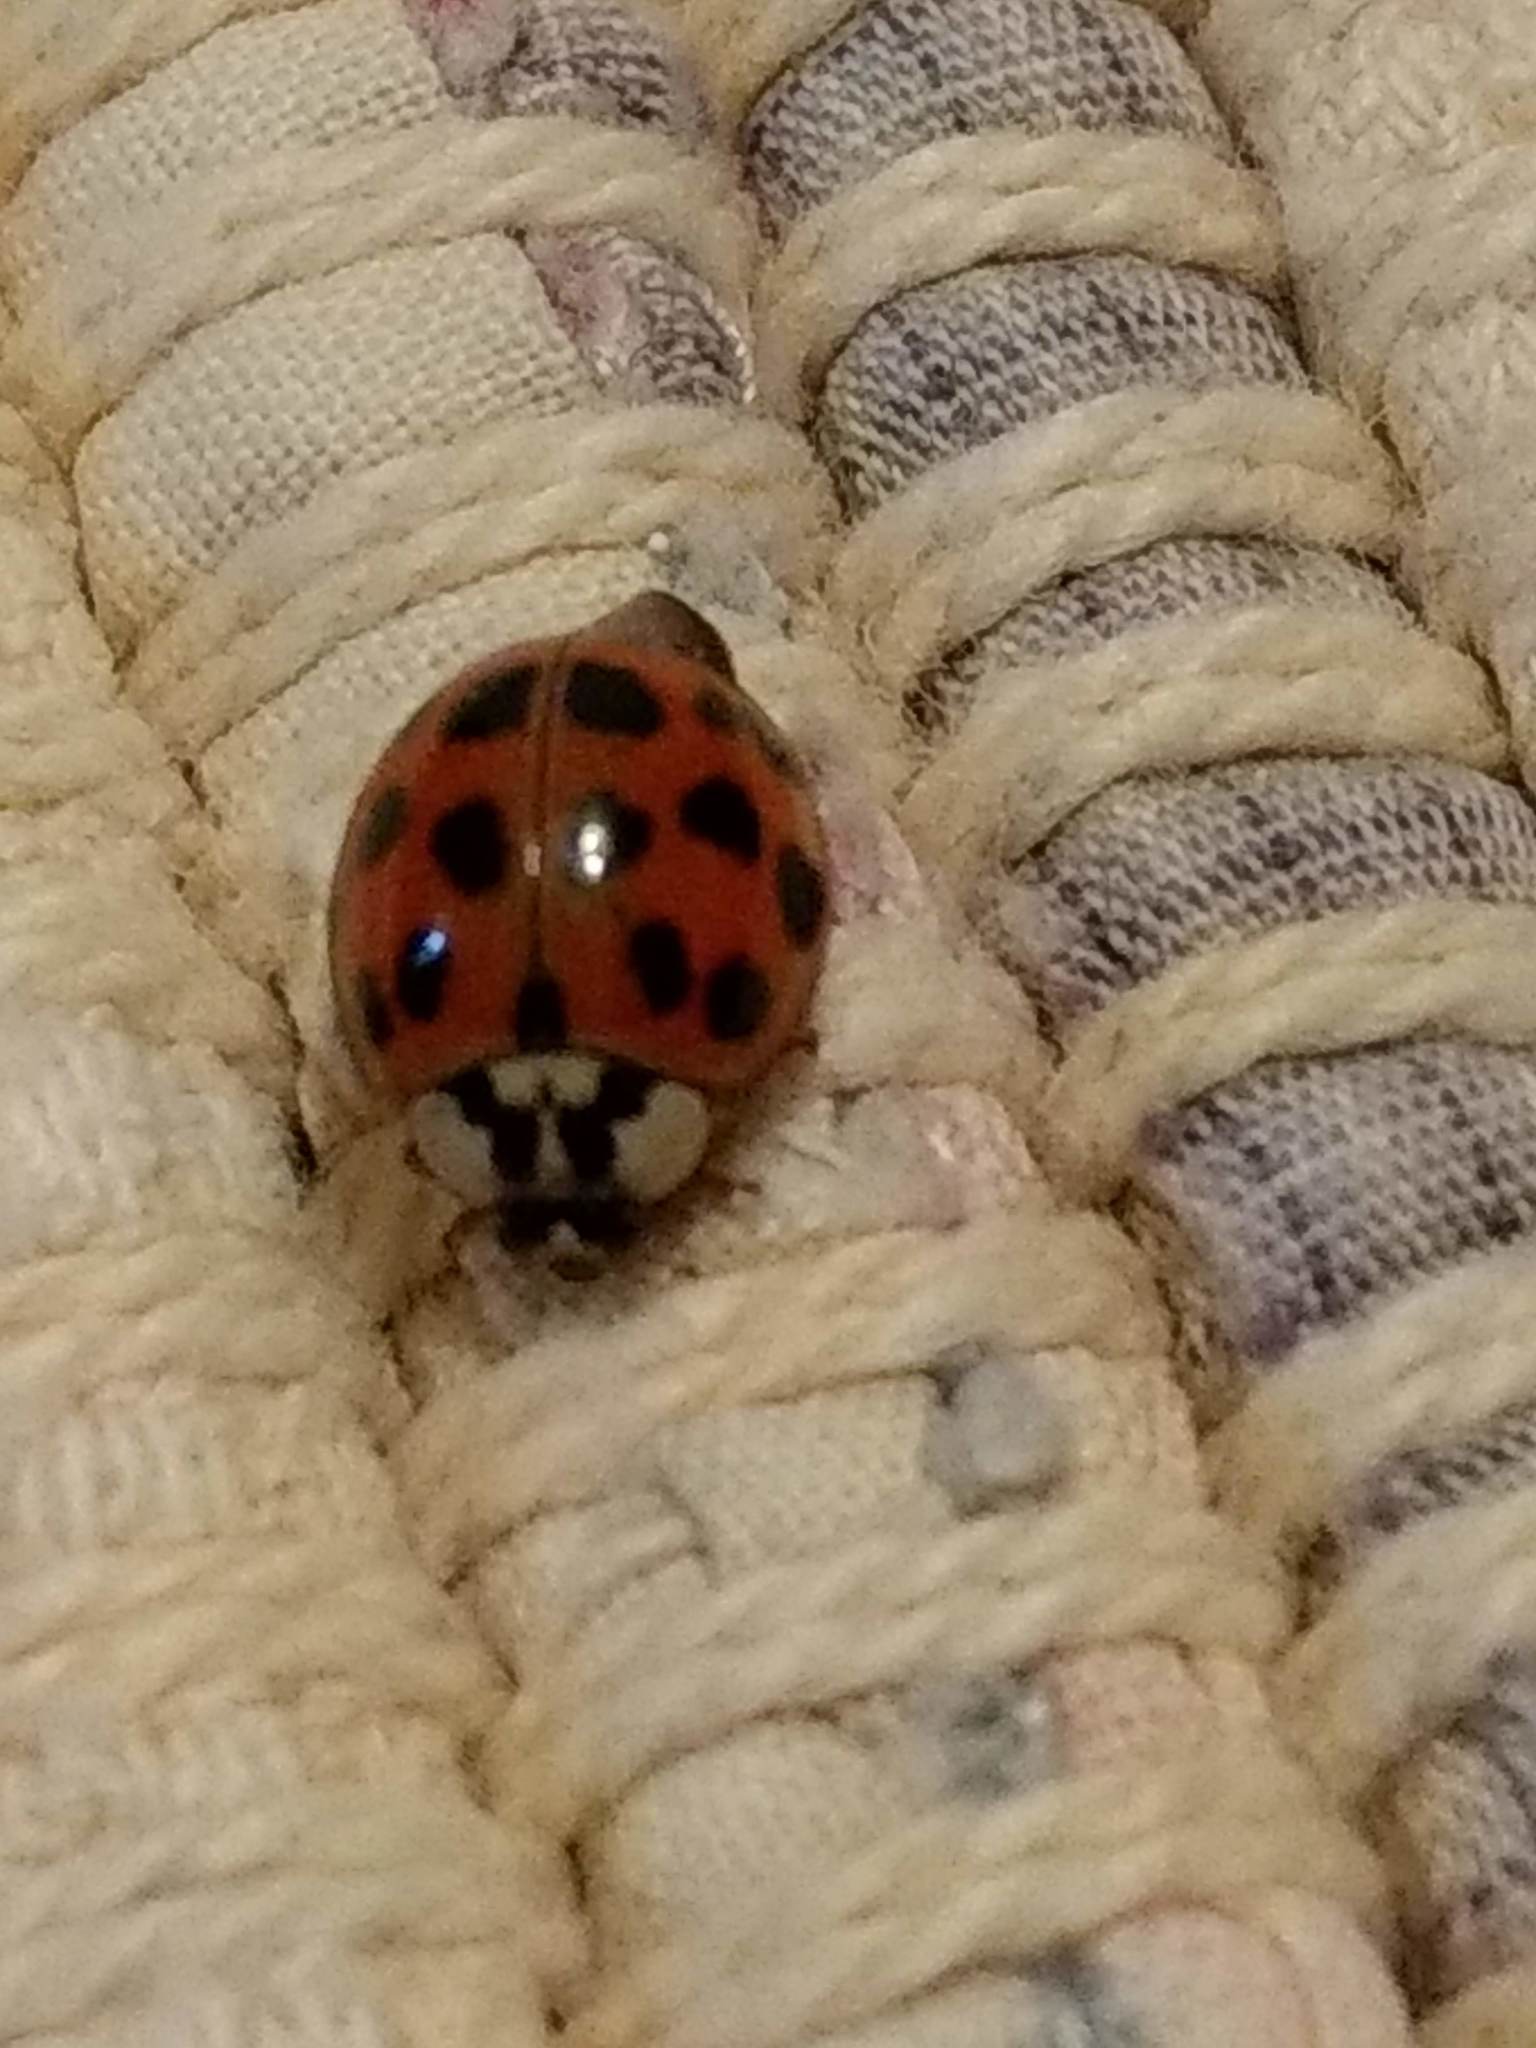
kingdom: Animalia
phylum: Arthropoda
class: Insecta
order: Coleoptera
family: Coccinellidae
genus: Harmonia
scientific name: Harmonia axyridis
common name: Harlequin ladybird
